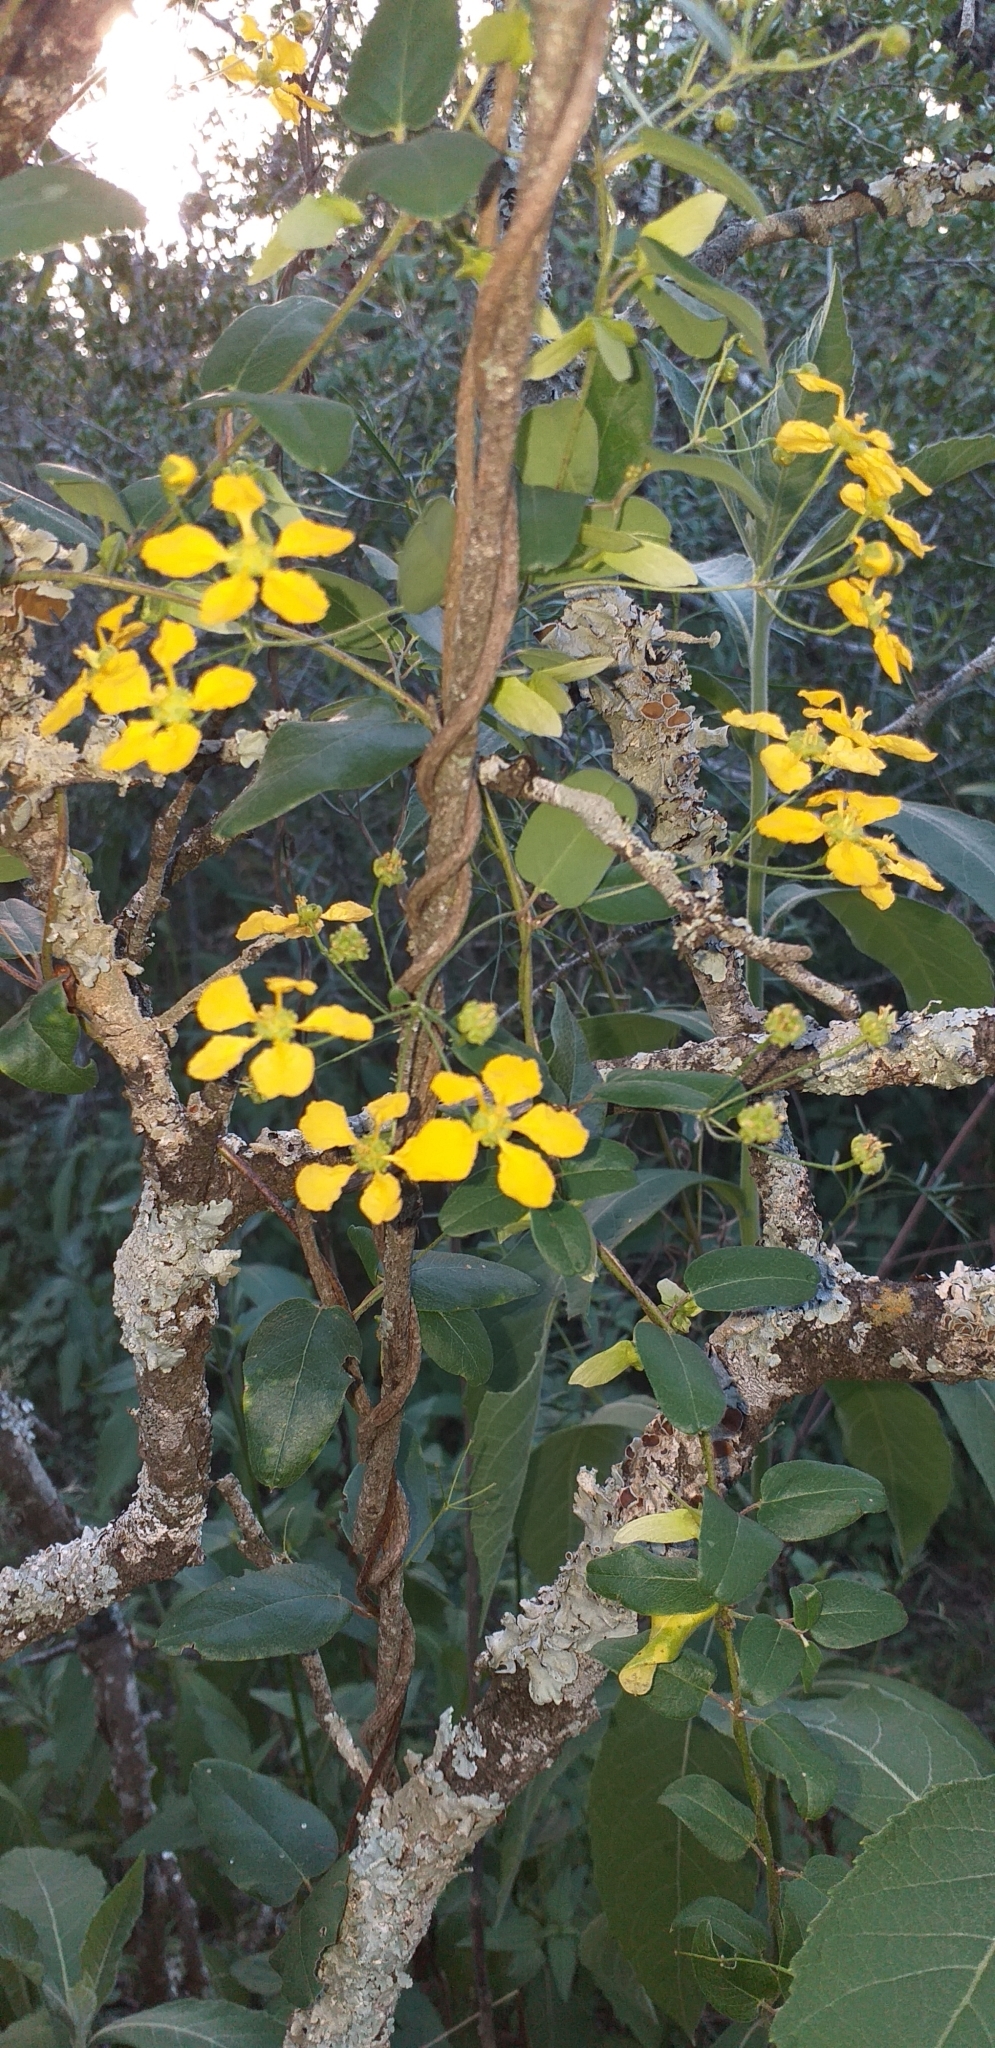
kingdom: Plantae
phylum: Tracheophyta
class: Magnoliopsida
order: Malpighiales
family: Malpighiaceae
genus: Janusia
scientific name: Janusia guaranitica
